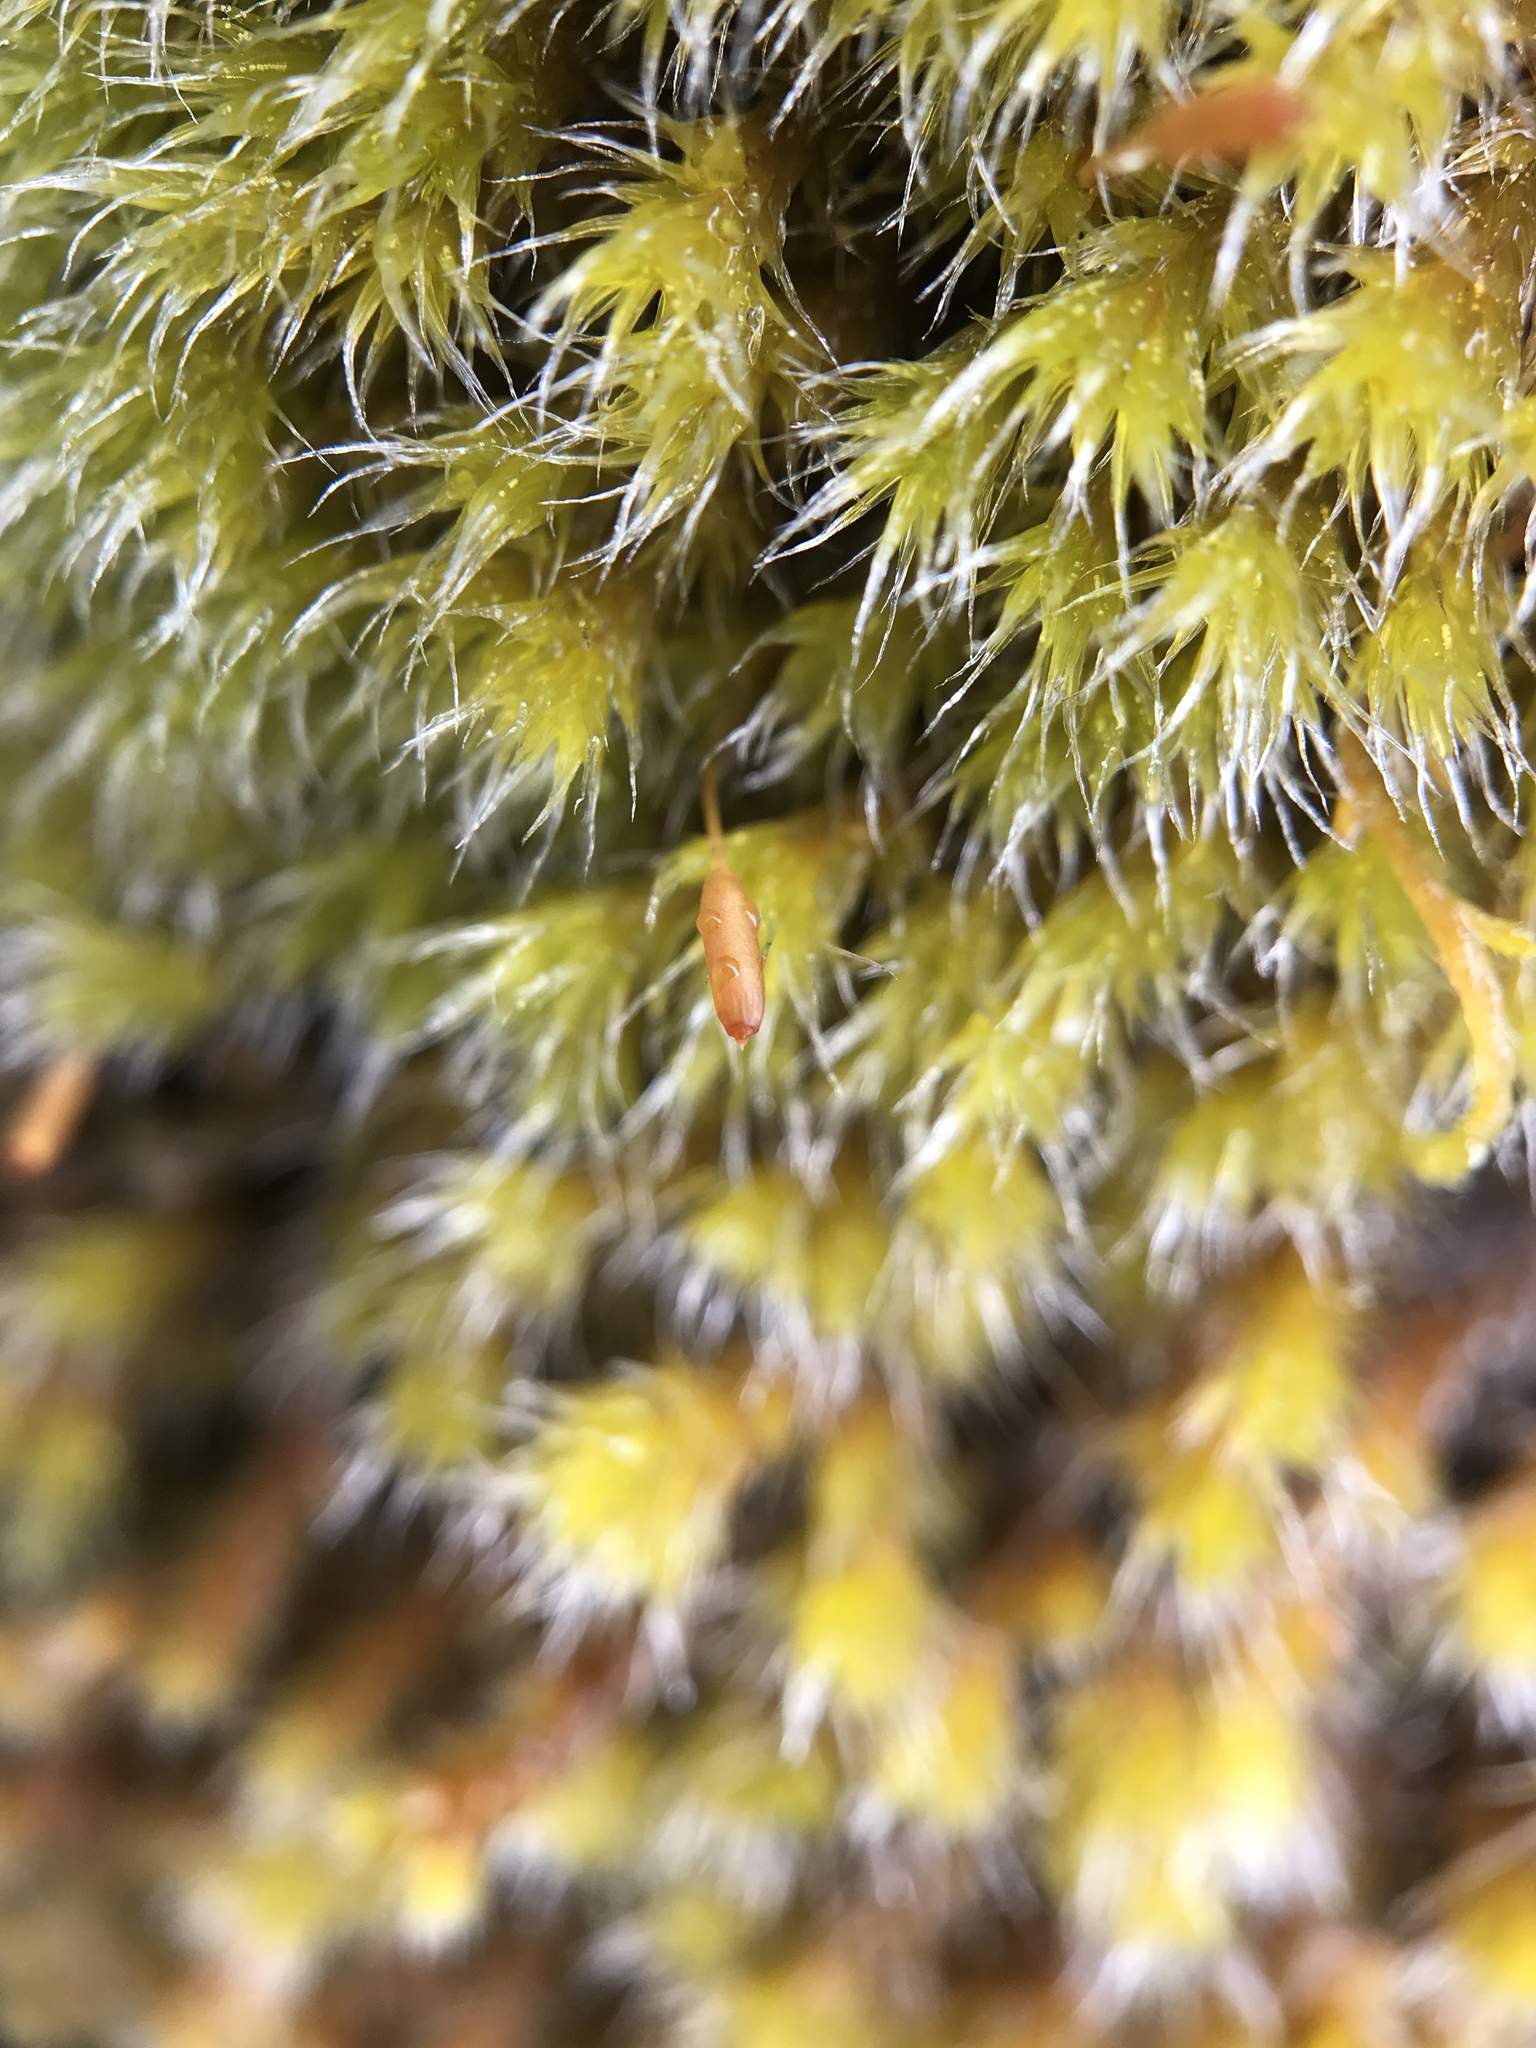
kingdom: Plantae
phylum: Bryophyta
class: Bryopsida
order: Grimmiales
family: Grimmiaceae
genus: Bucklandiella
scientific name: Bucklandiella heterosticha
